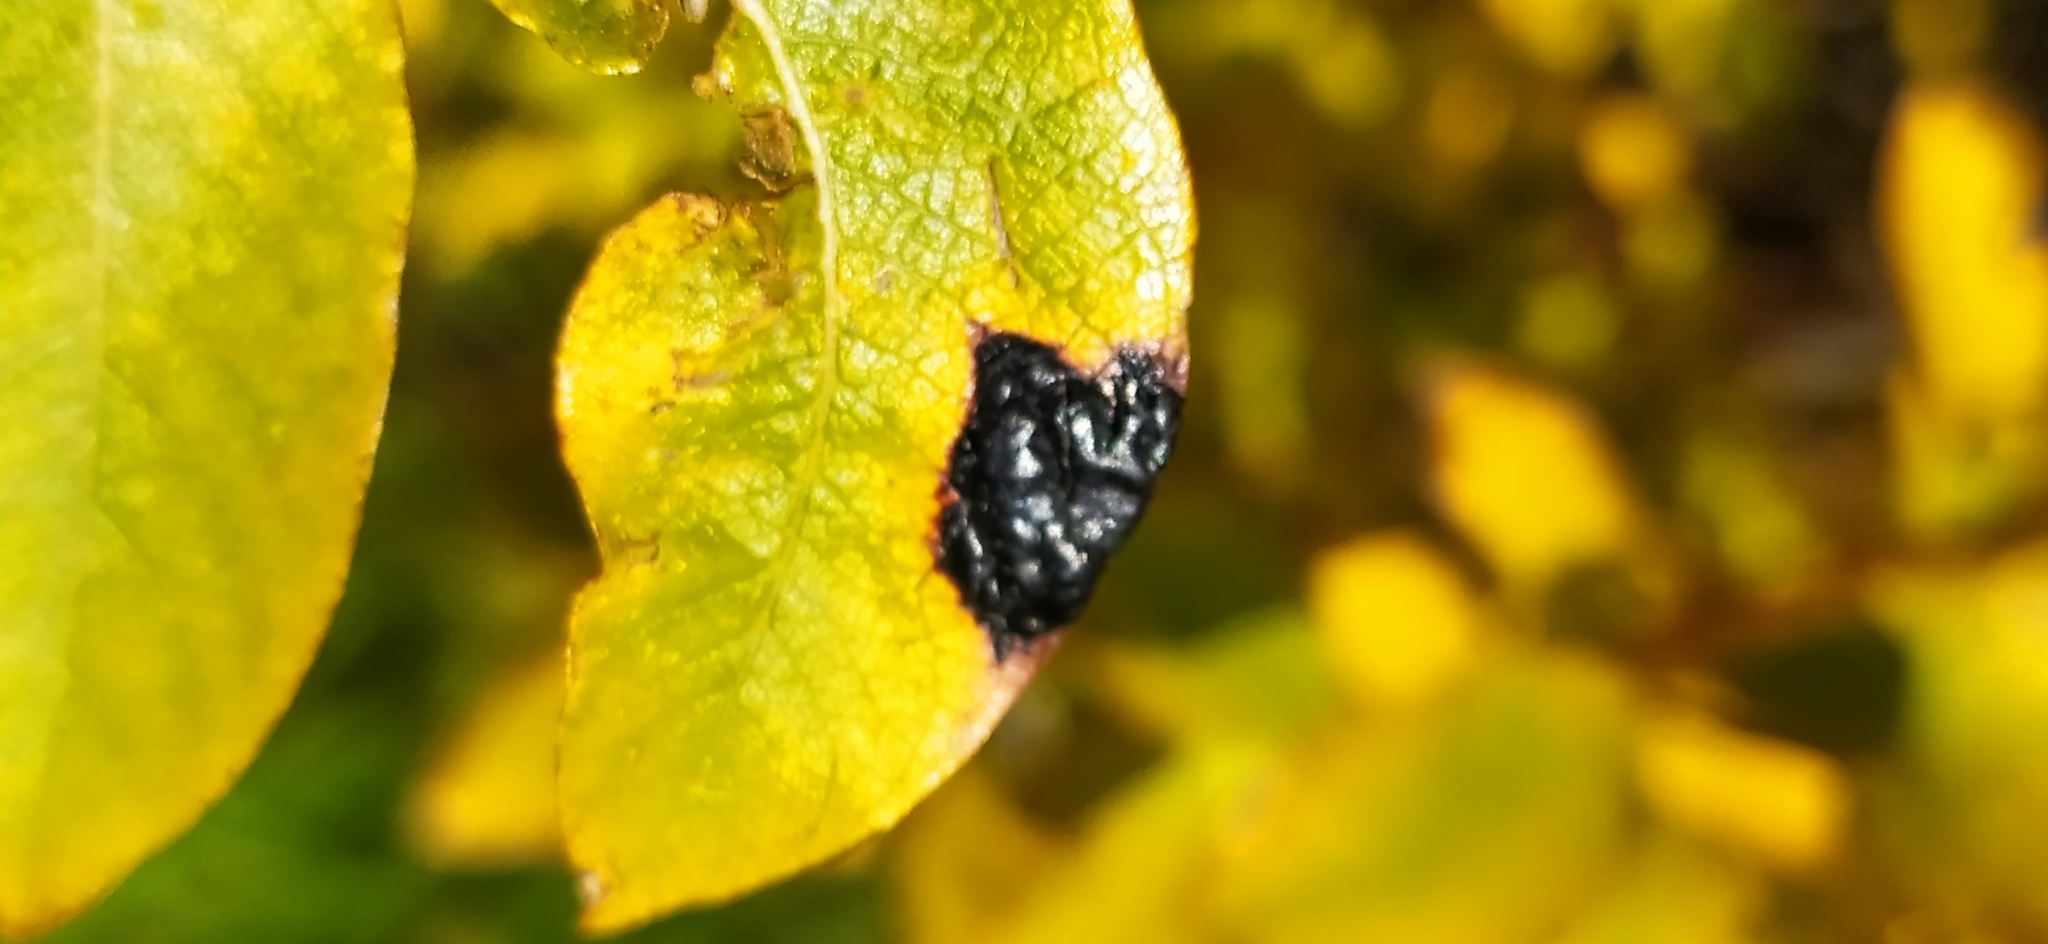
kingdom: Fungi
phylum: Ascomycota
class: Leotiomycetes
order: Rhytismatales
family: Rhytismataceae
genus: Rhytisma
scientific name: Rhytisma salicinum
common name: Willow tarspot
